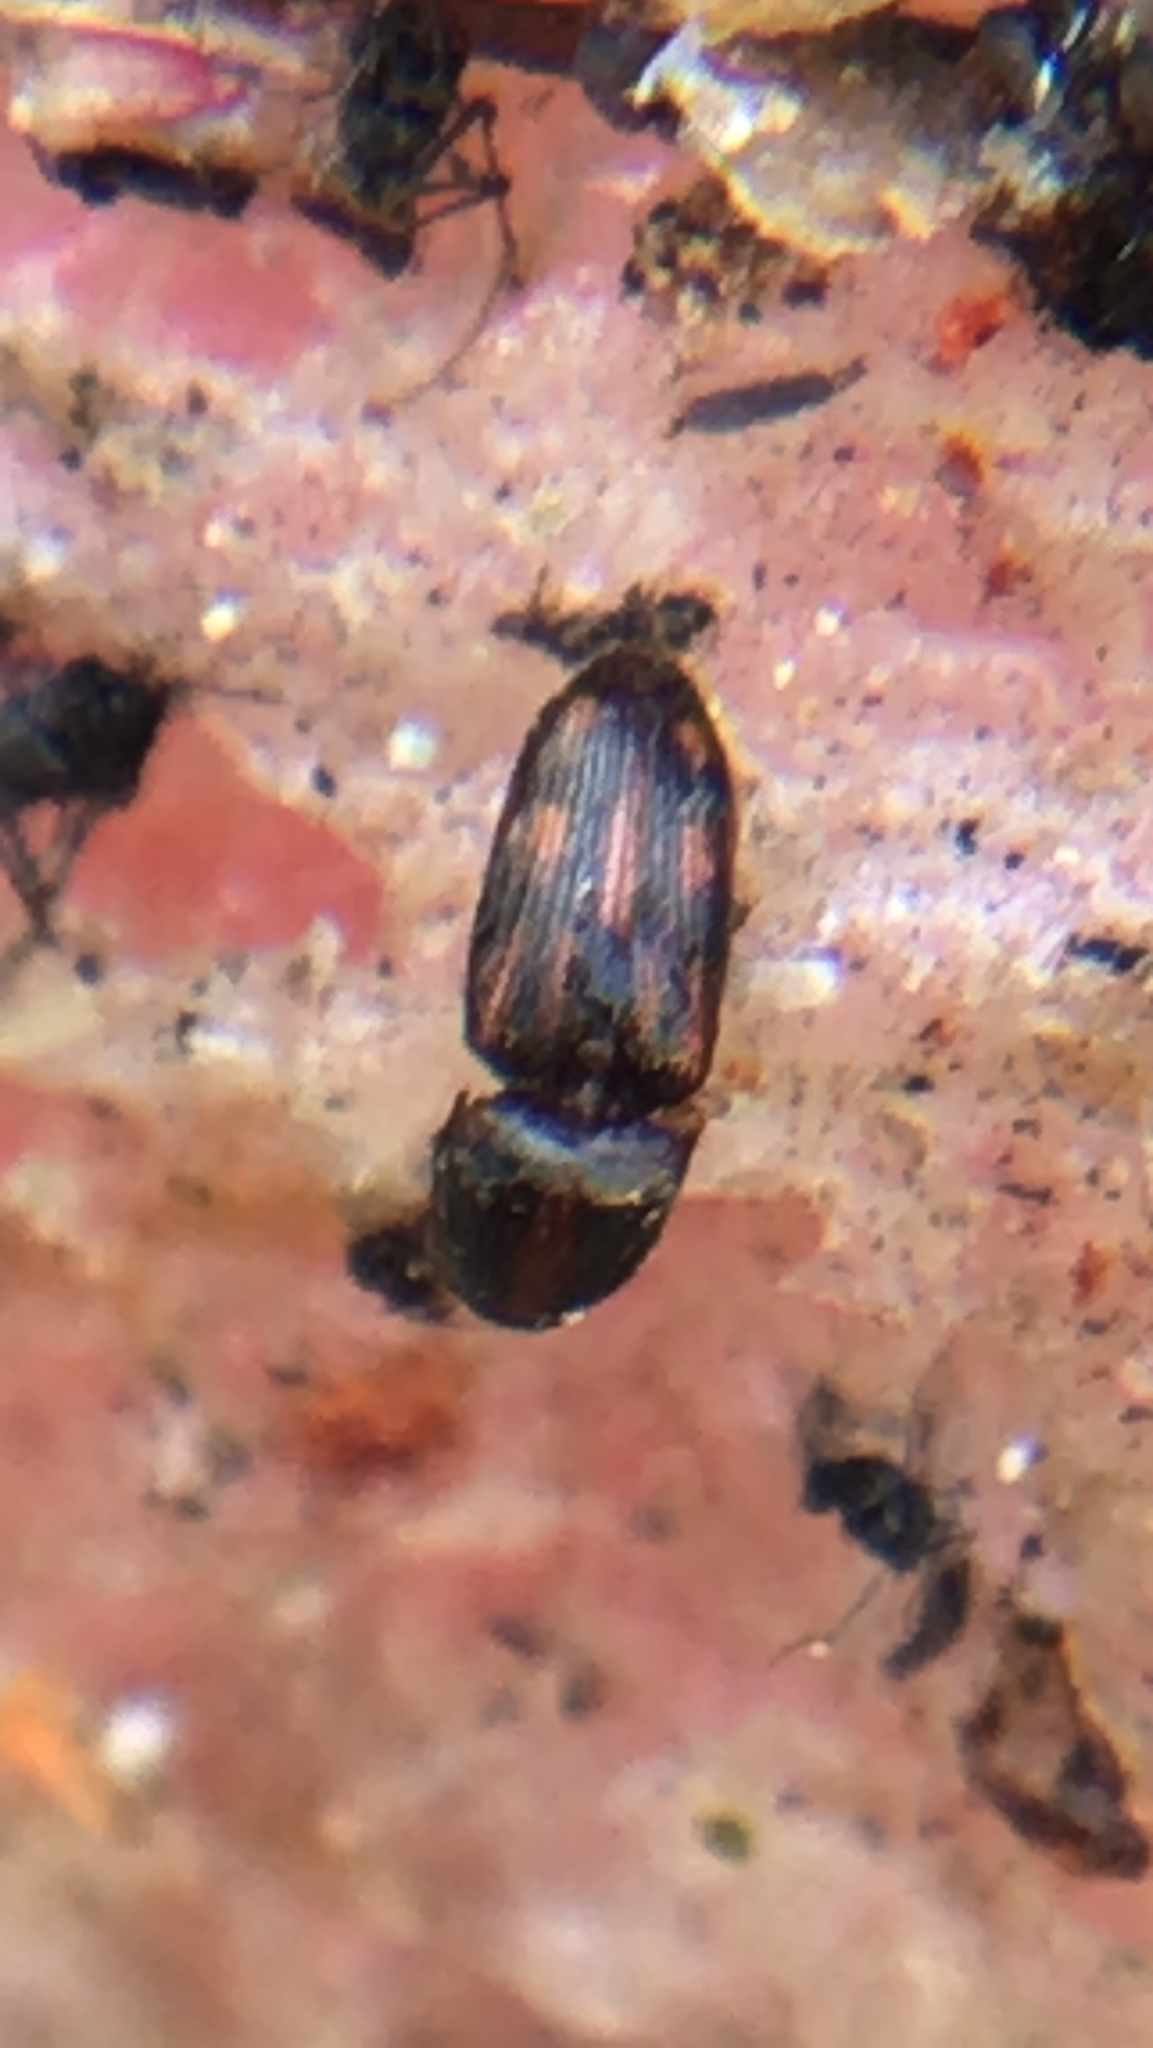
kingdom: Animalia
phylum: Arthropoda
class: Insecta
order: Coleoptera
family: Elateridae
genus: Monocrepidius
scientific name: Monocrepidius bellus
